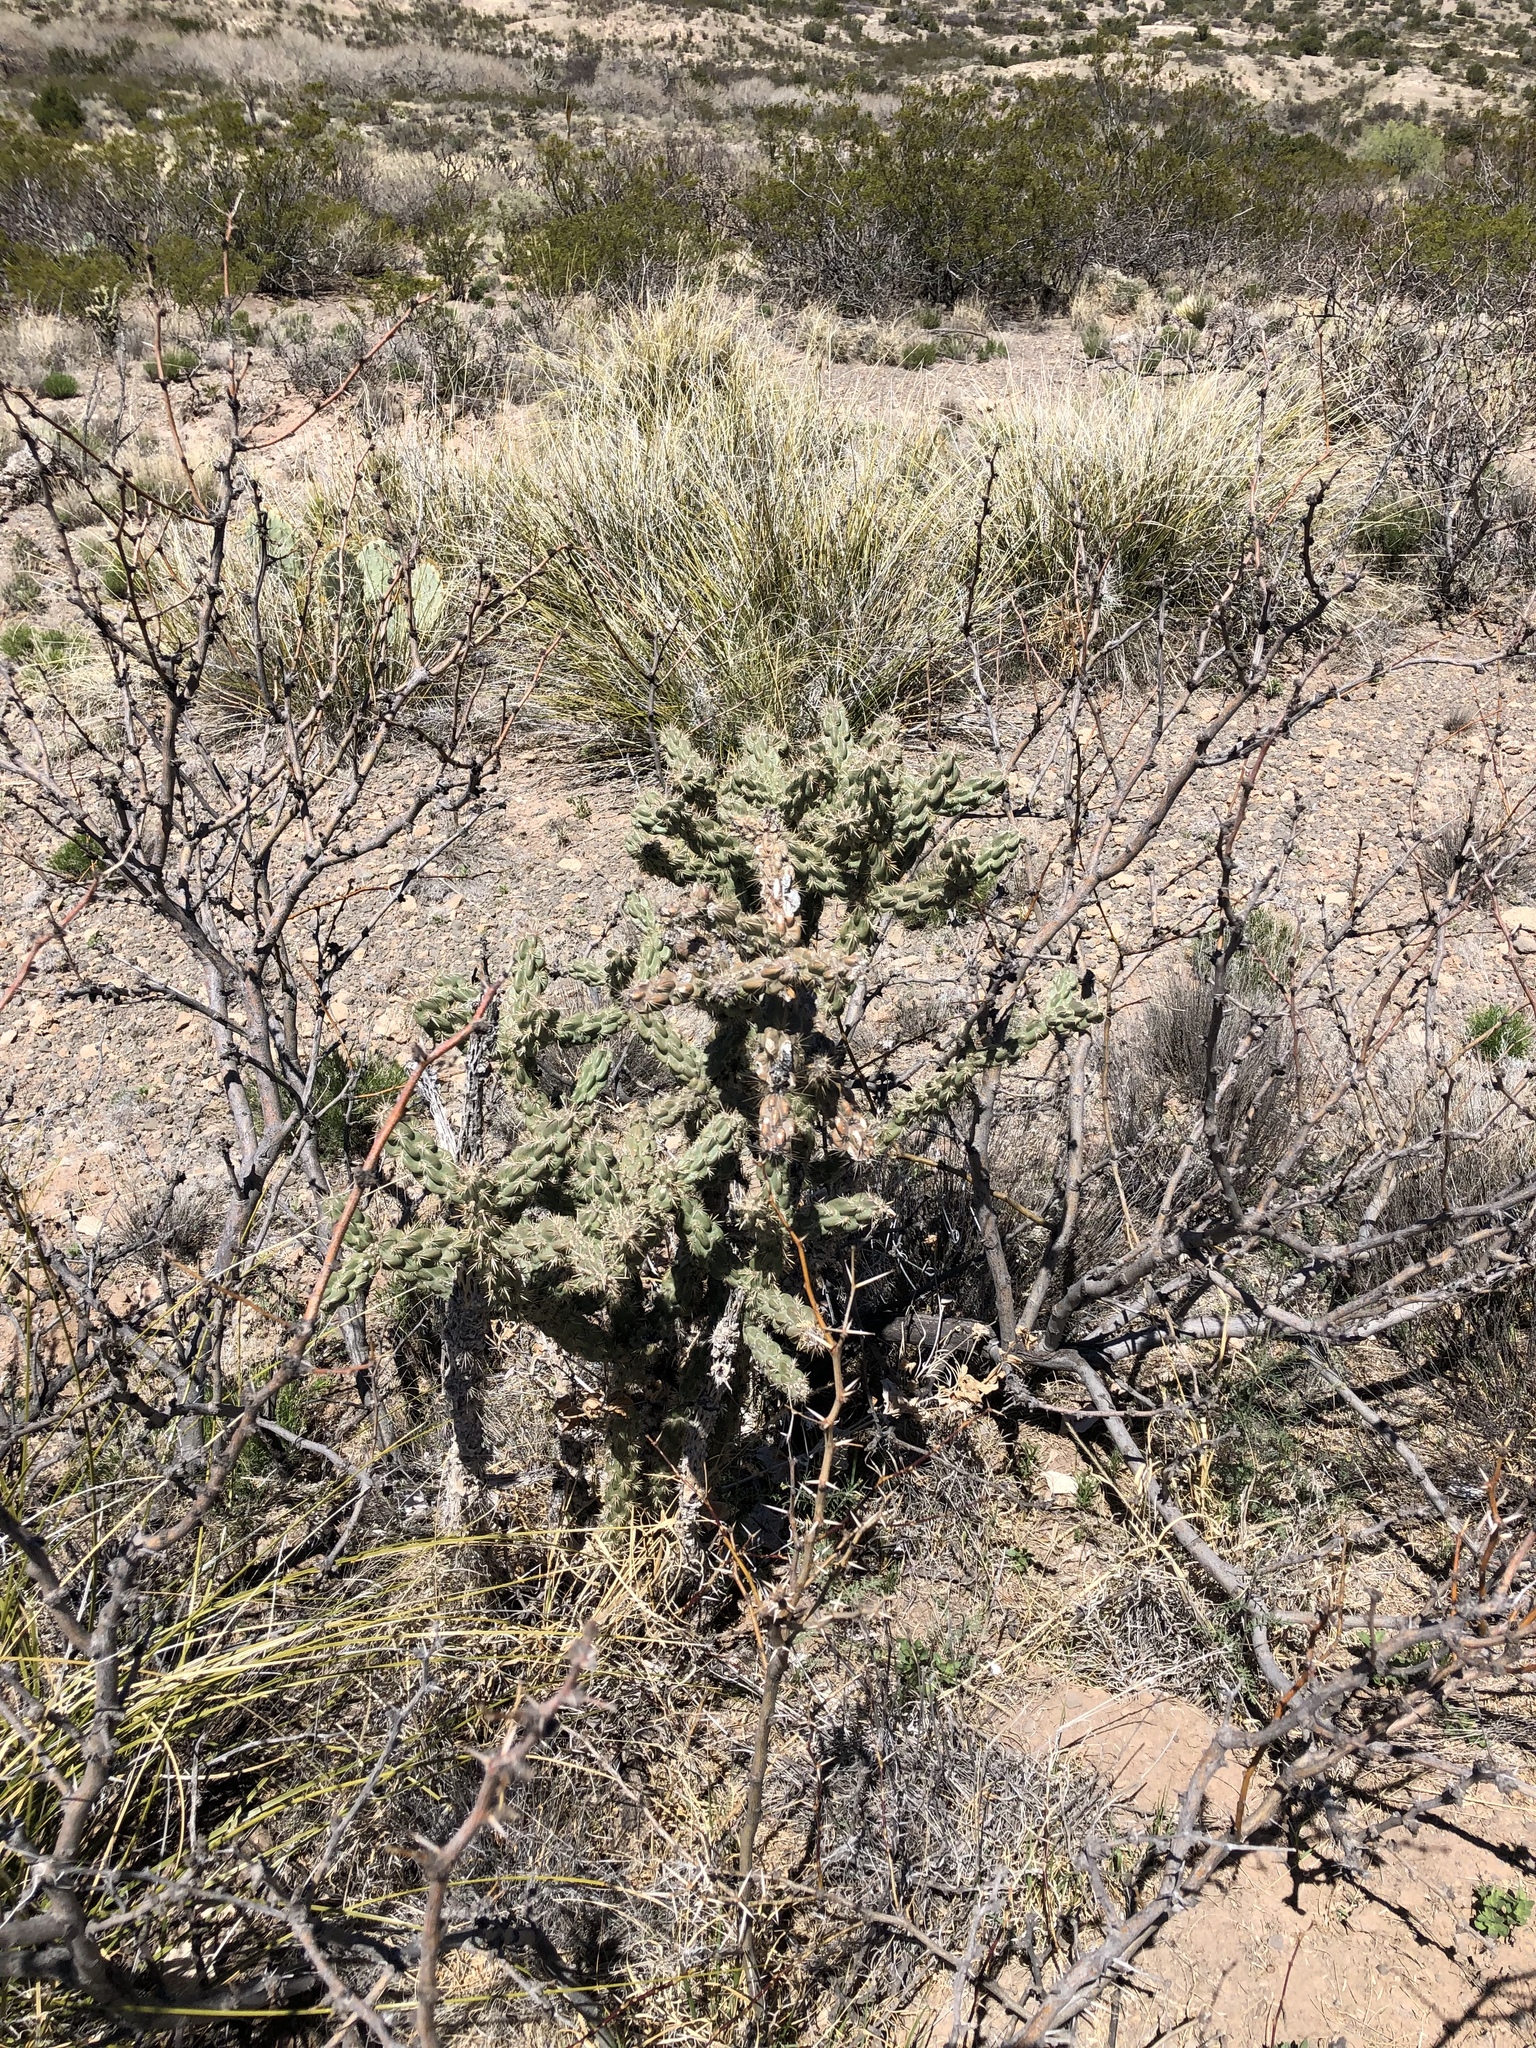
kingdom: Plantae
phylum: Tracheophyta
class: Magnoliopsida
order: Caryophyllales
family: Cactaceae
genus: Cylindropuntia
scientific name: Cylindropuntia imbricata
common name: Candelabrum cactus
